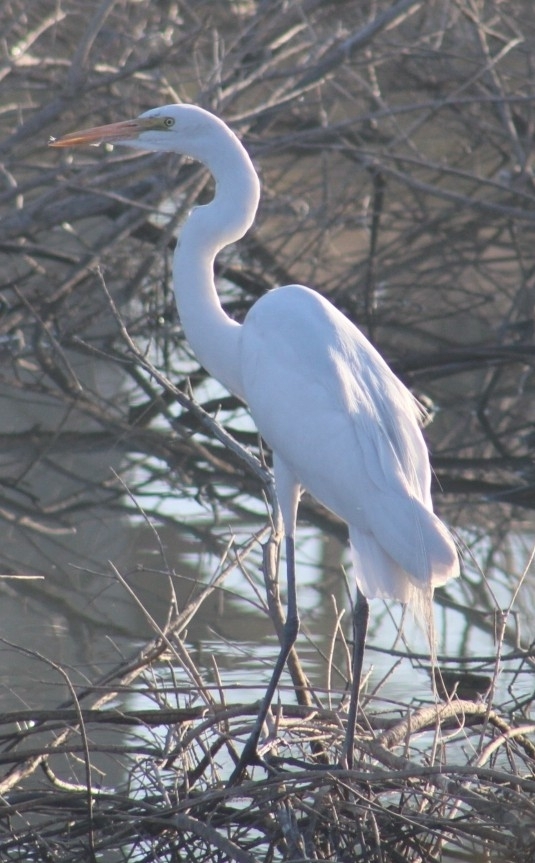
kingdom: Animalia
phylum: Chordata
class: Aves
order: Pelecaniformes
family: Ardeidae
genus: Ardea
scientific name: Ardea alba
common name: Great egret
